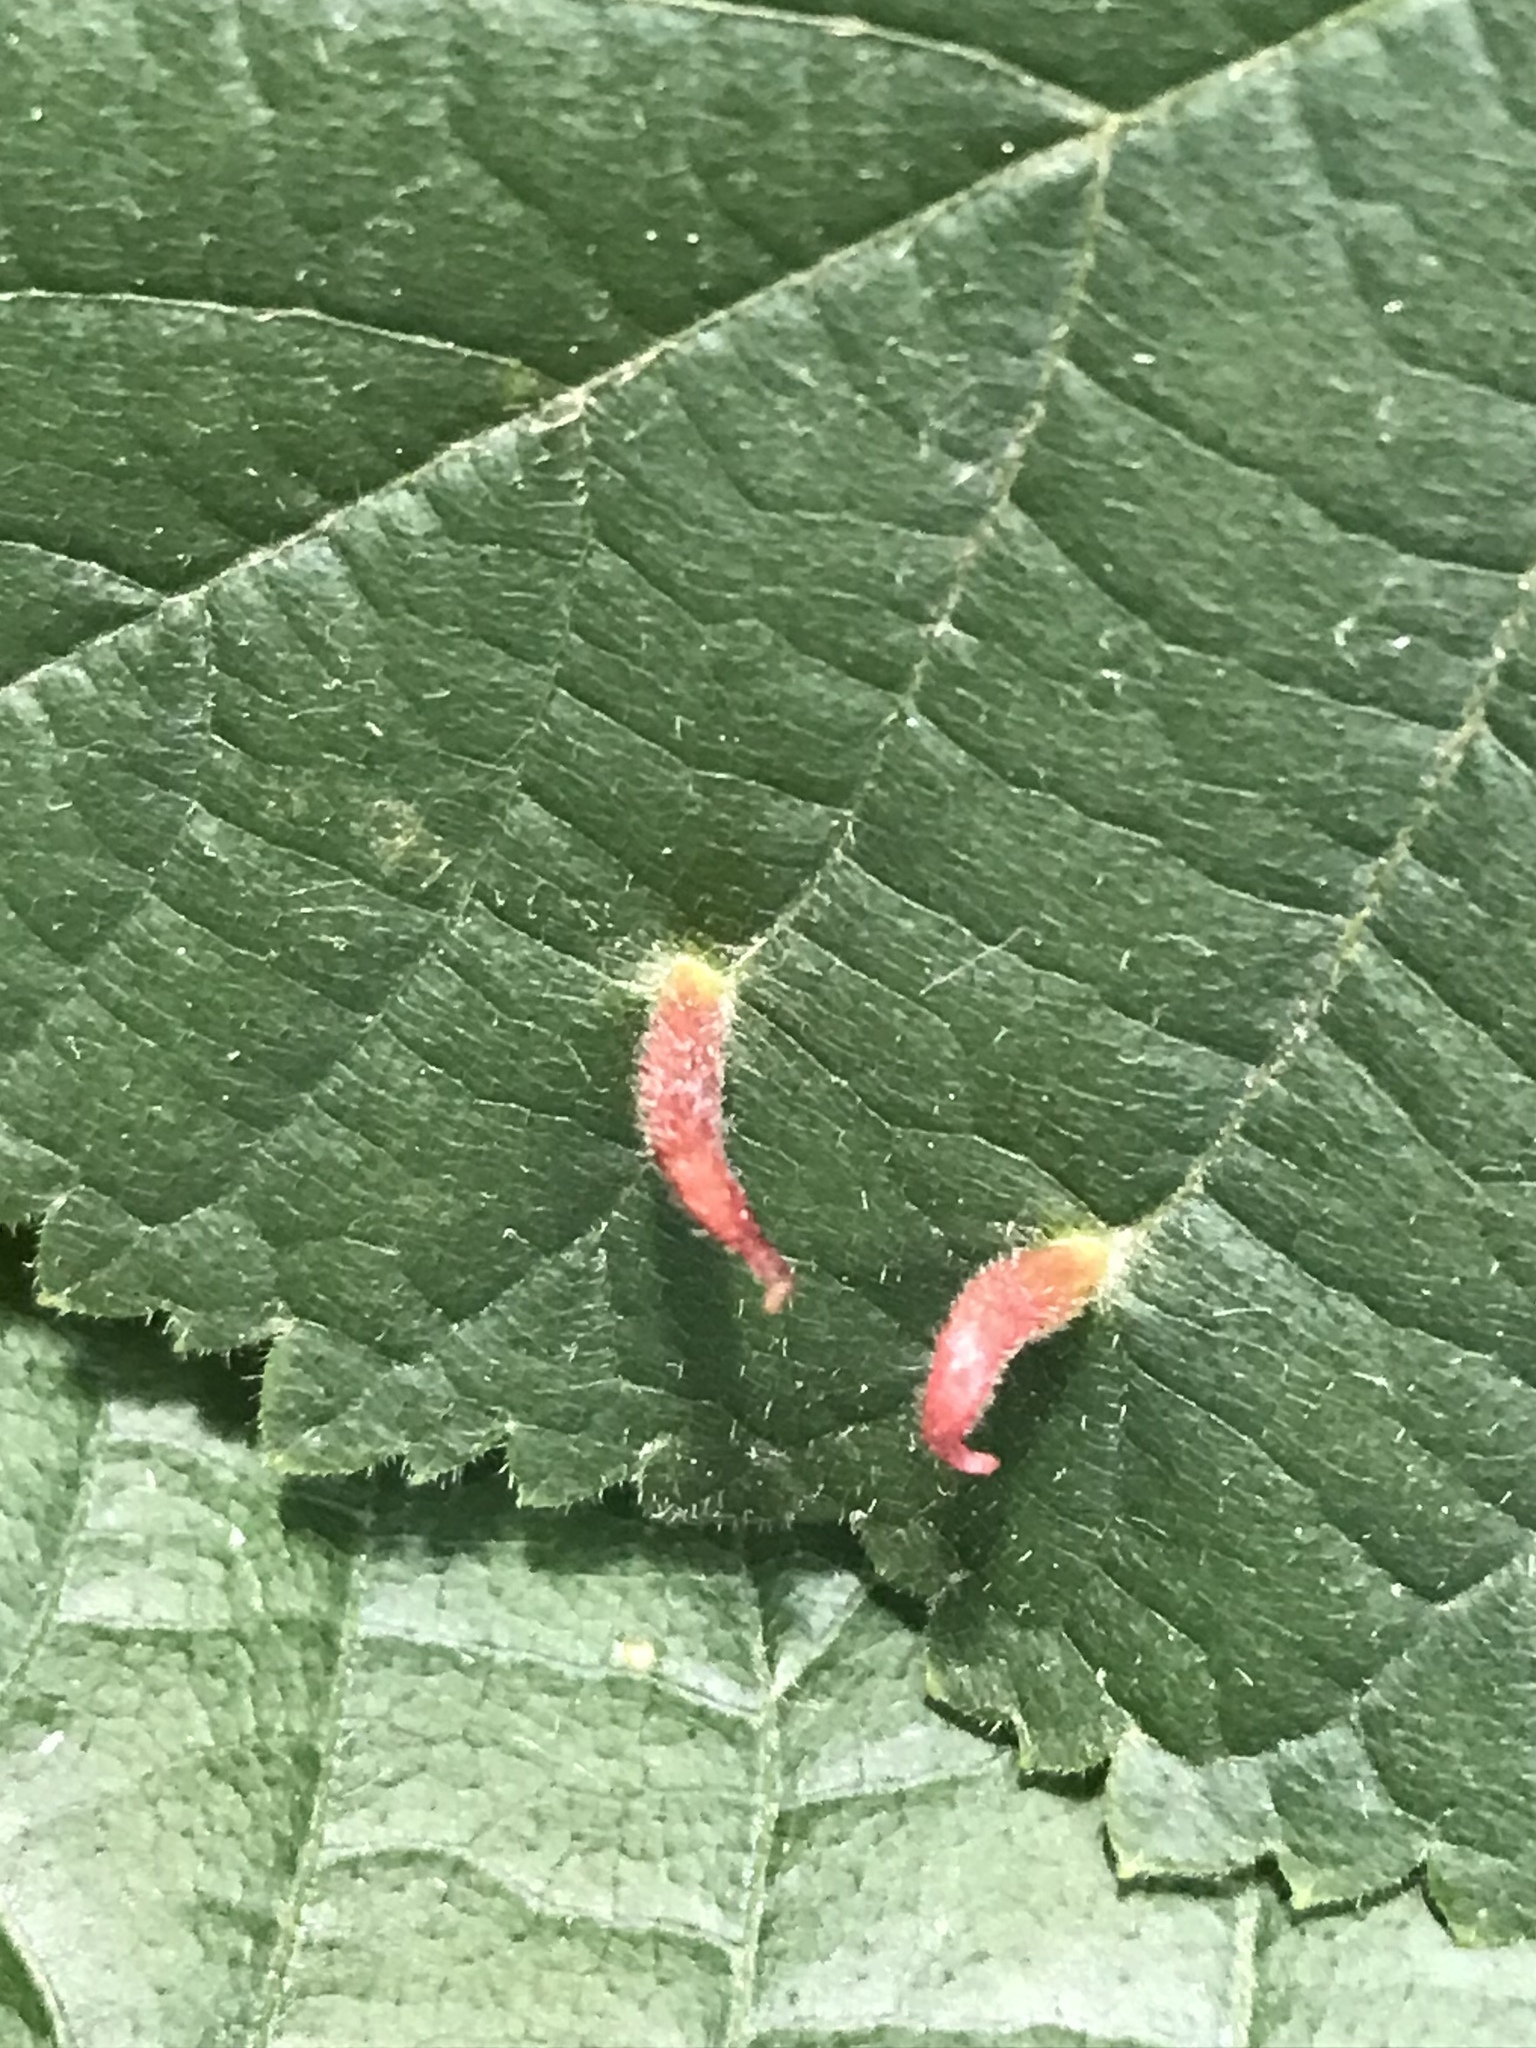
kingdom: Animalia
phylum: Arthropoda
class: Arachnida
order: Trombidiformes
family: Eriophyidae
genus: Eriophyes
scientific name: Eriophyes tiliae
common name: Red nail gall mite
